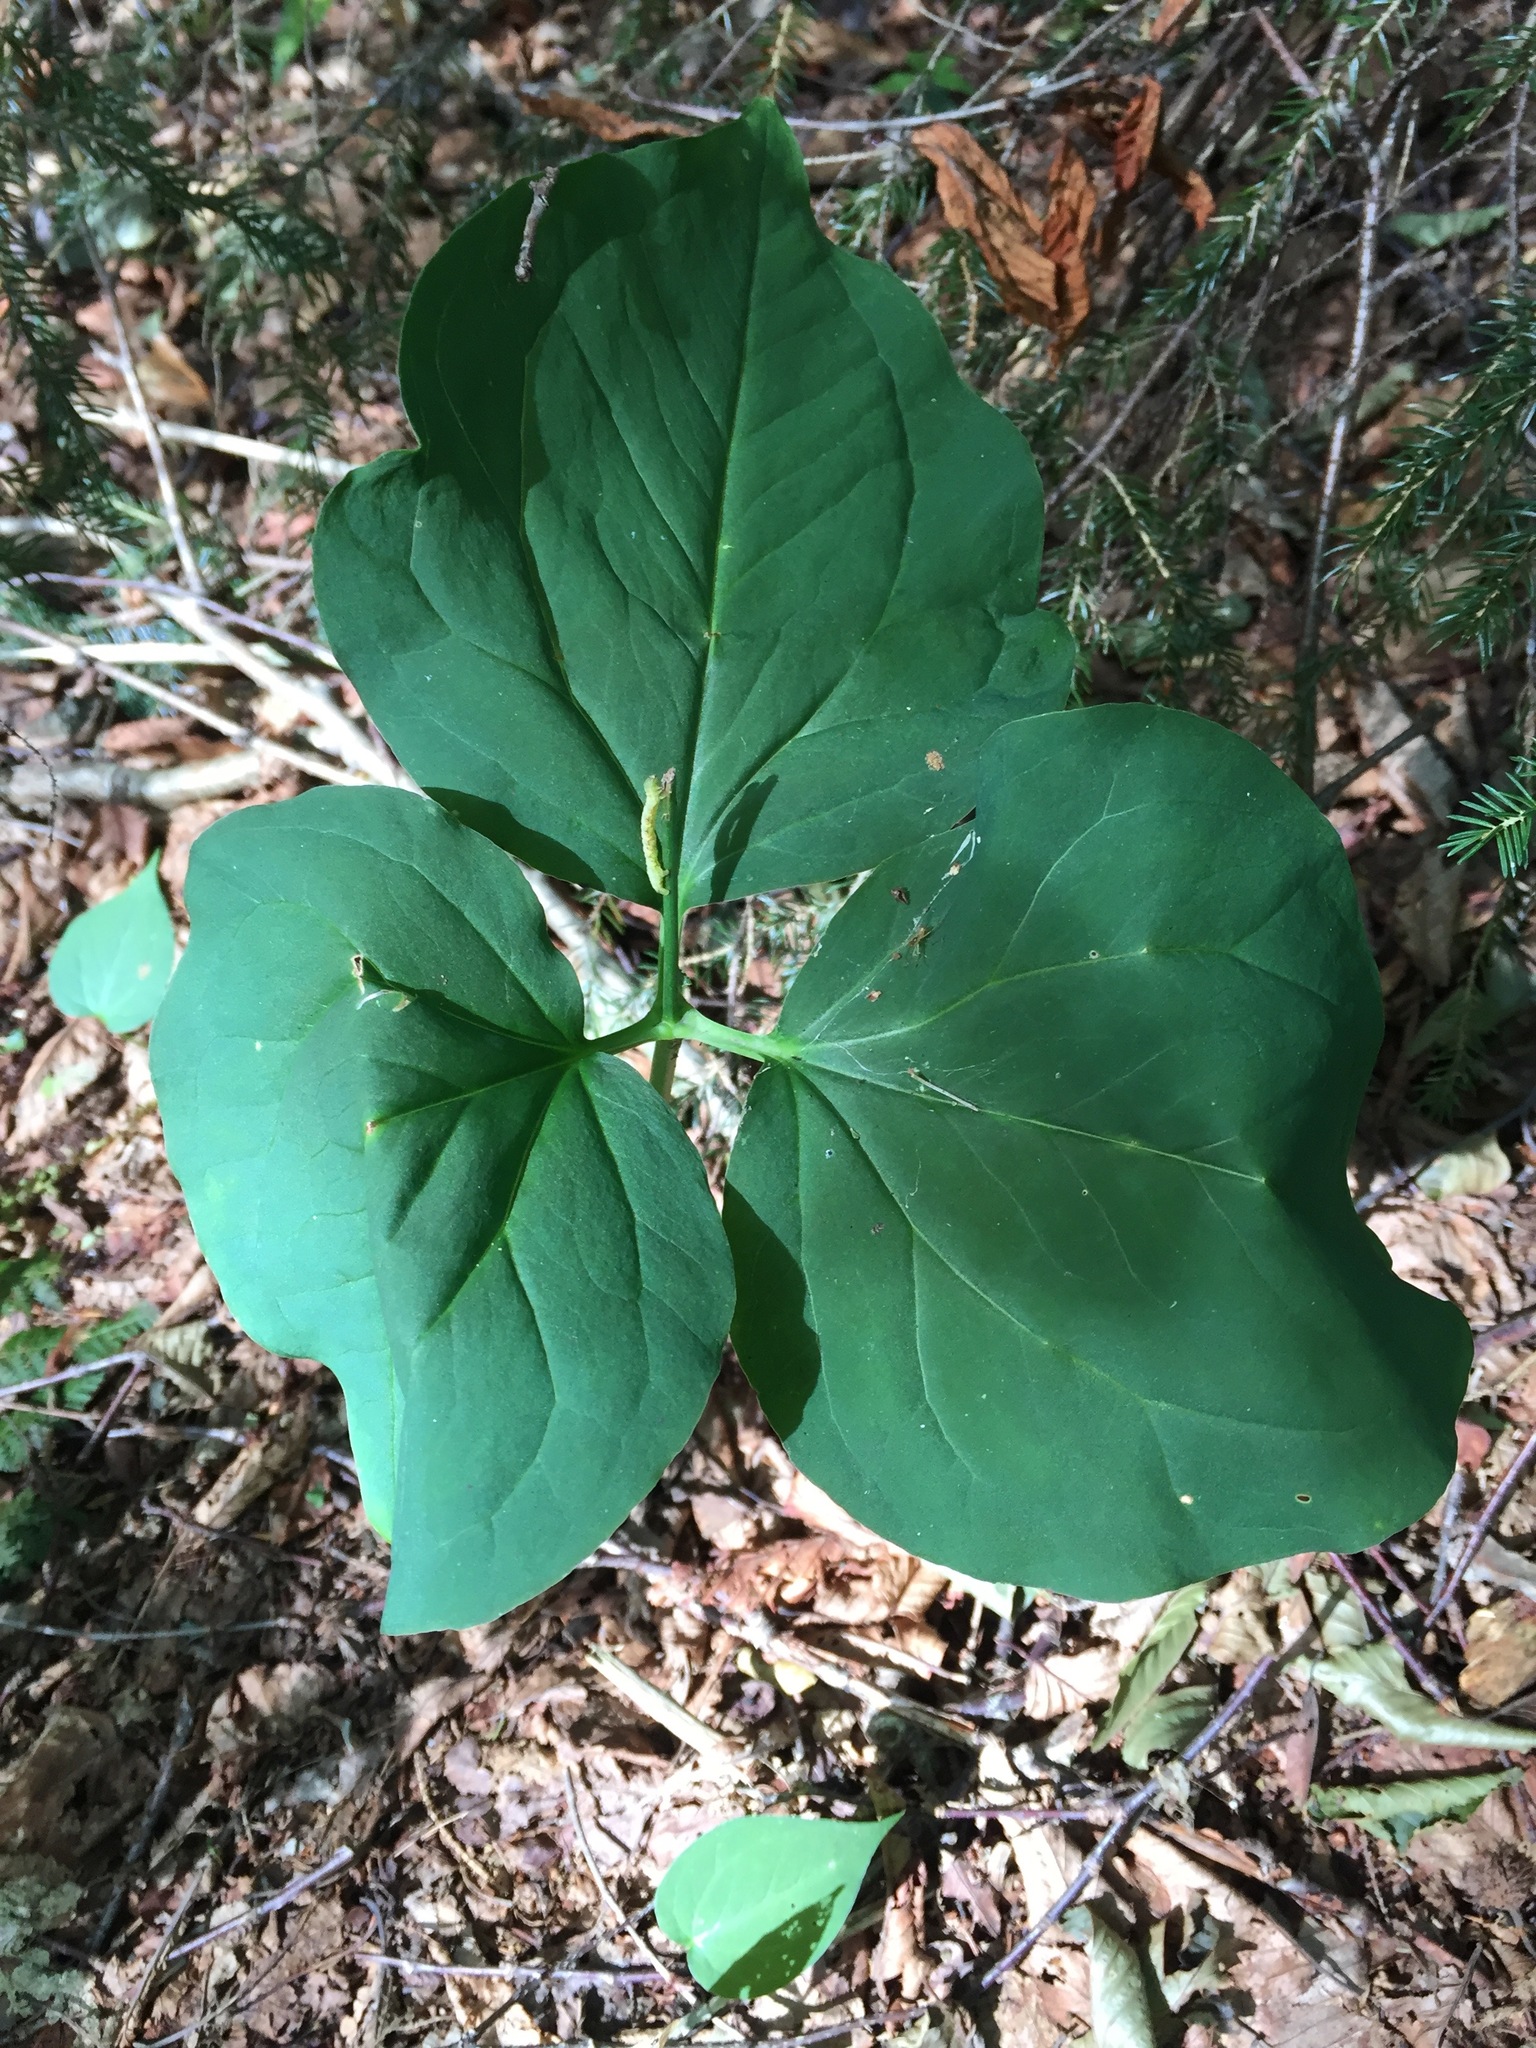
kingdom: Plantae
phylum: Tracheophyta
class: Liliopsida
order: Liliales
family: Melanthiaceae
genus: Trillium
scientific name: Trillium undulatum
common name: Paint trillium
